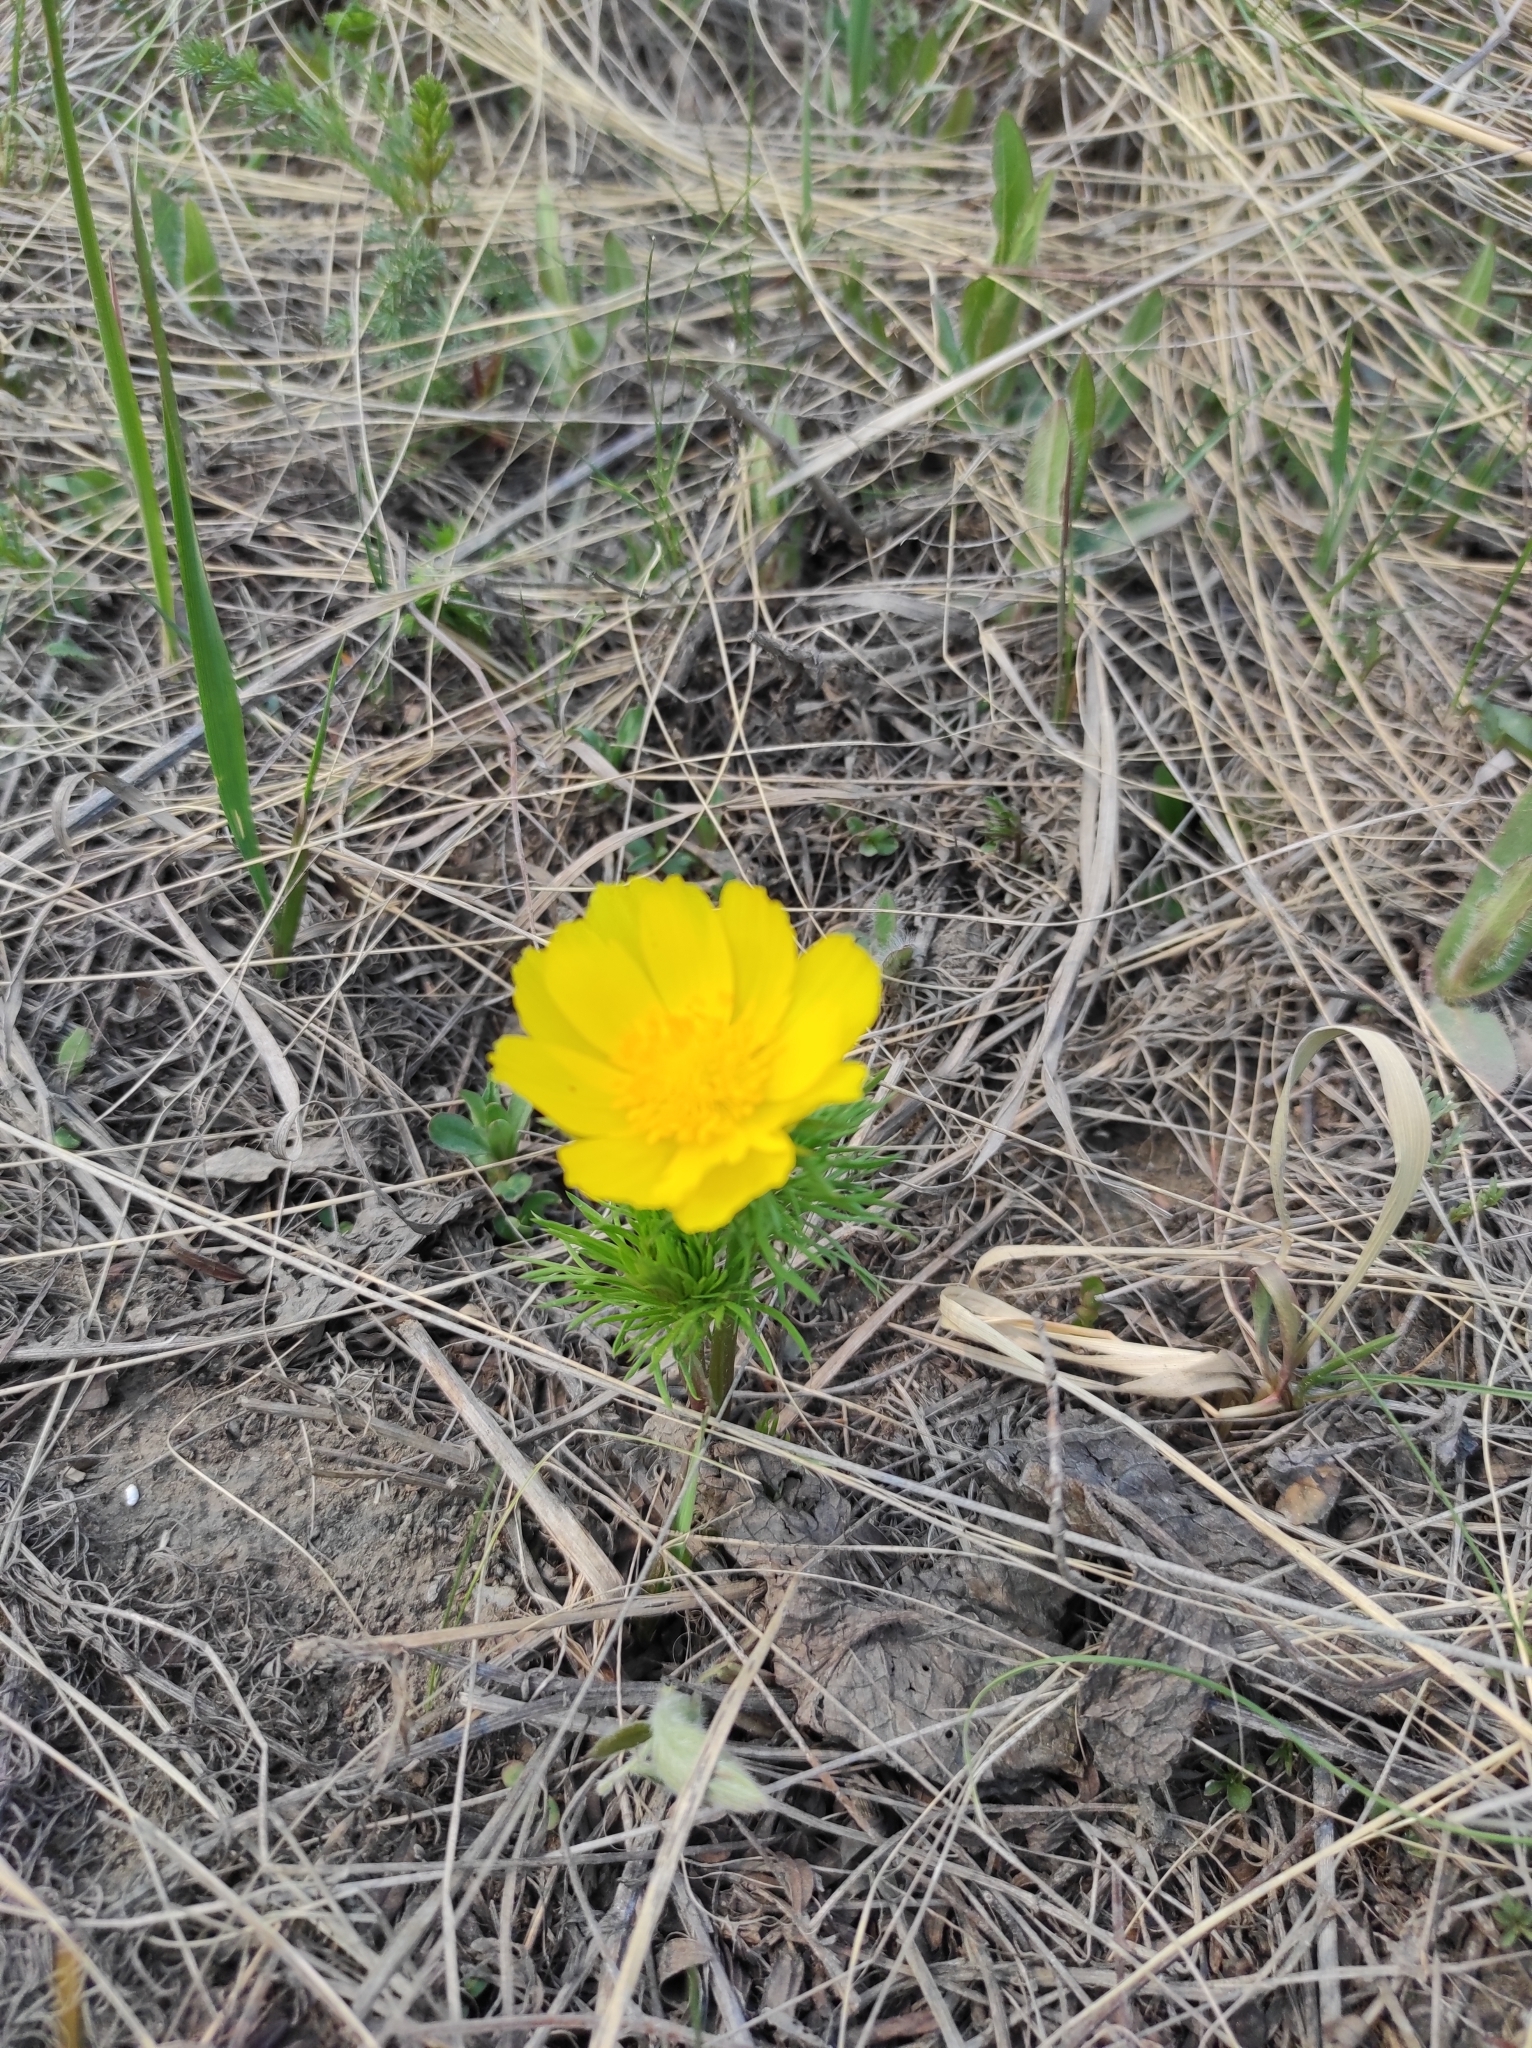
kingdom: Plantae
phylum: Tracheophyta
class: Magnoliopsida
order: Ranunculales
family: Ranunculaceae
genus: Adonis
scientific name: Adonis vernalis
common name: Yellow pheasants-eye
